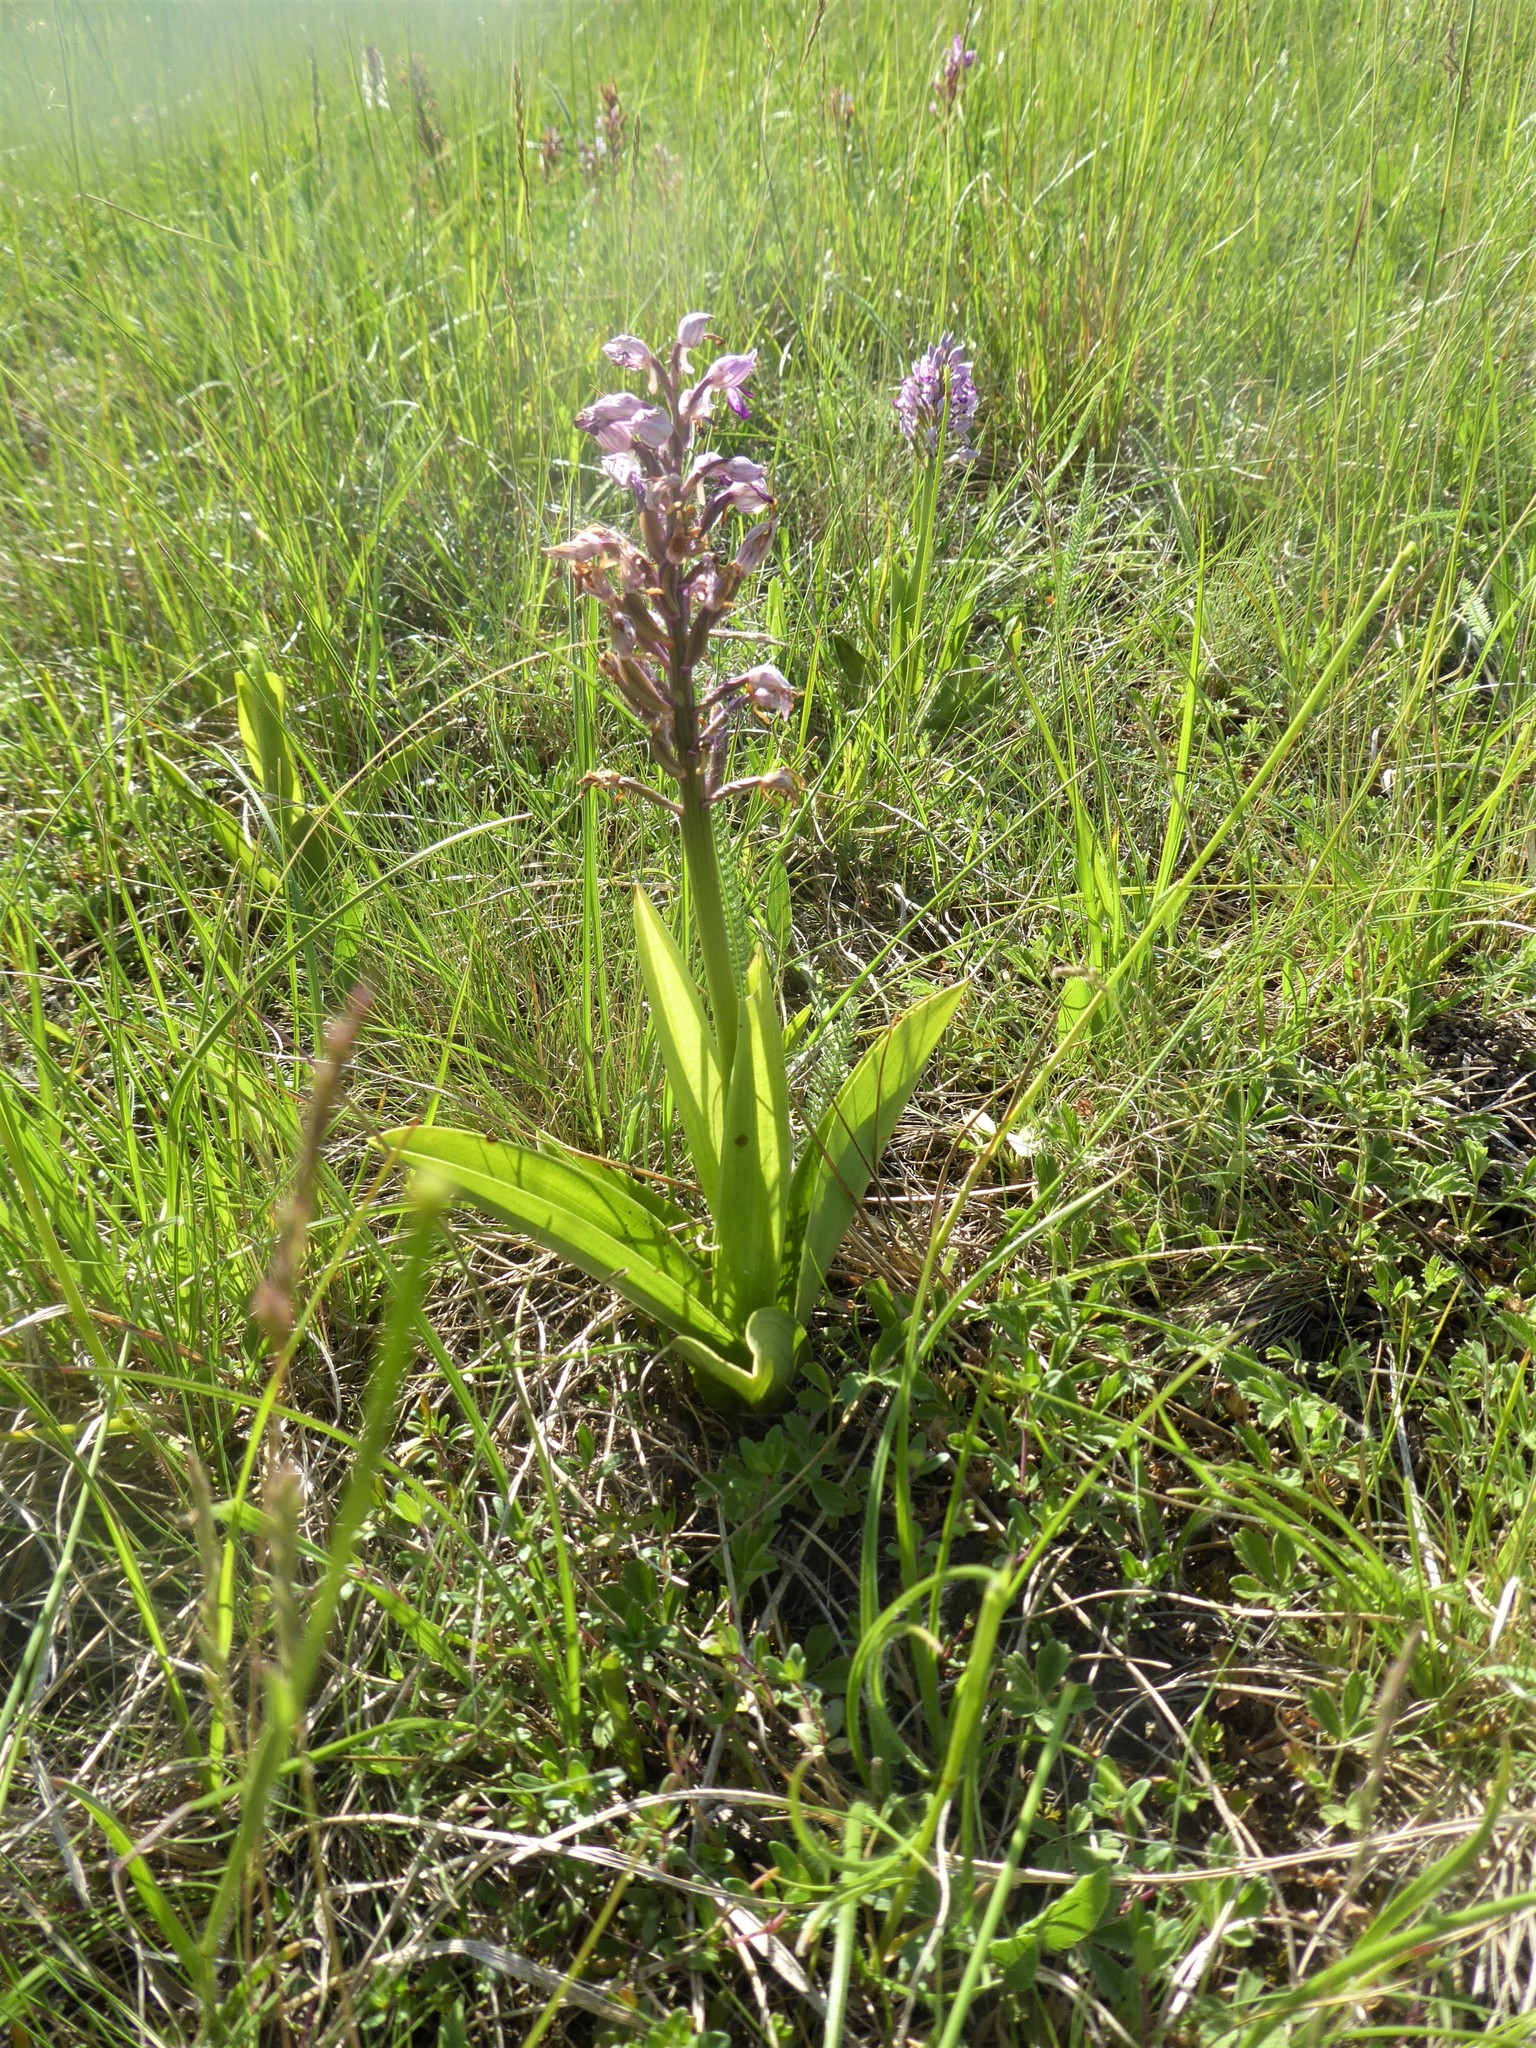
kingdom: Plantae
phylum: Tracheophyta
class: Liliopsida
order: Asparagales
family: Orchidaceae
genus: Orchis
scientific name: Orchis militaris
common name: Military orchid
